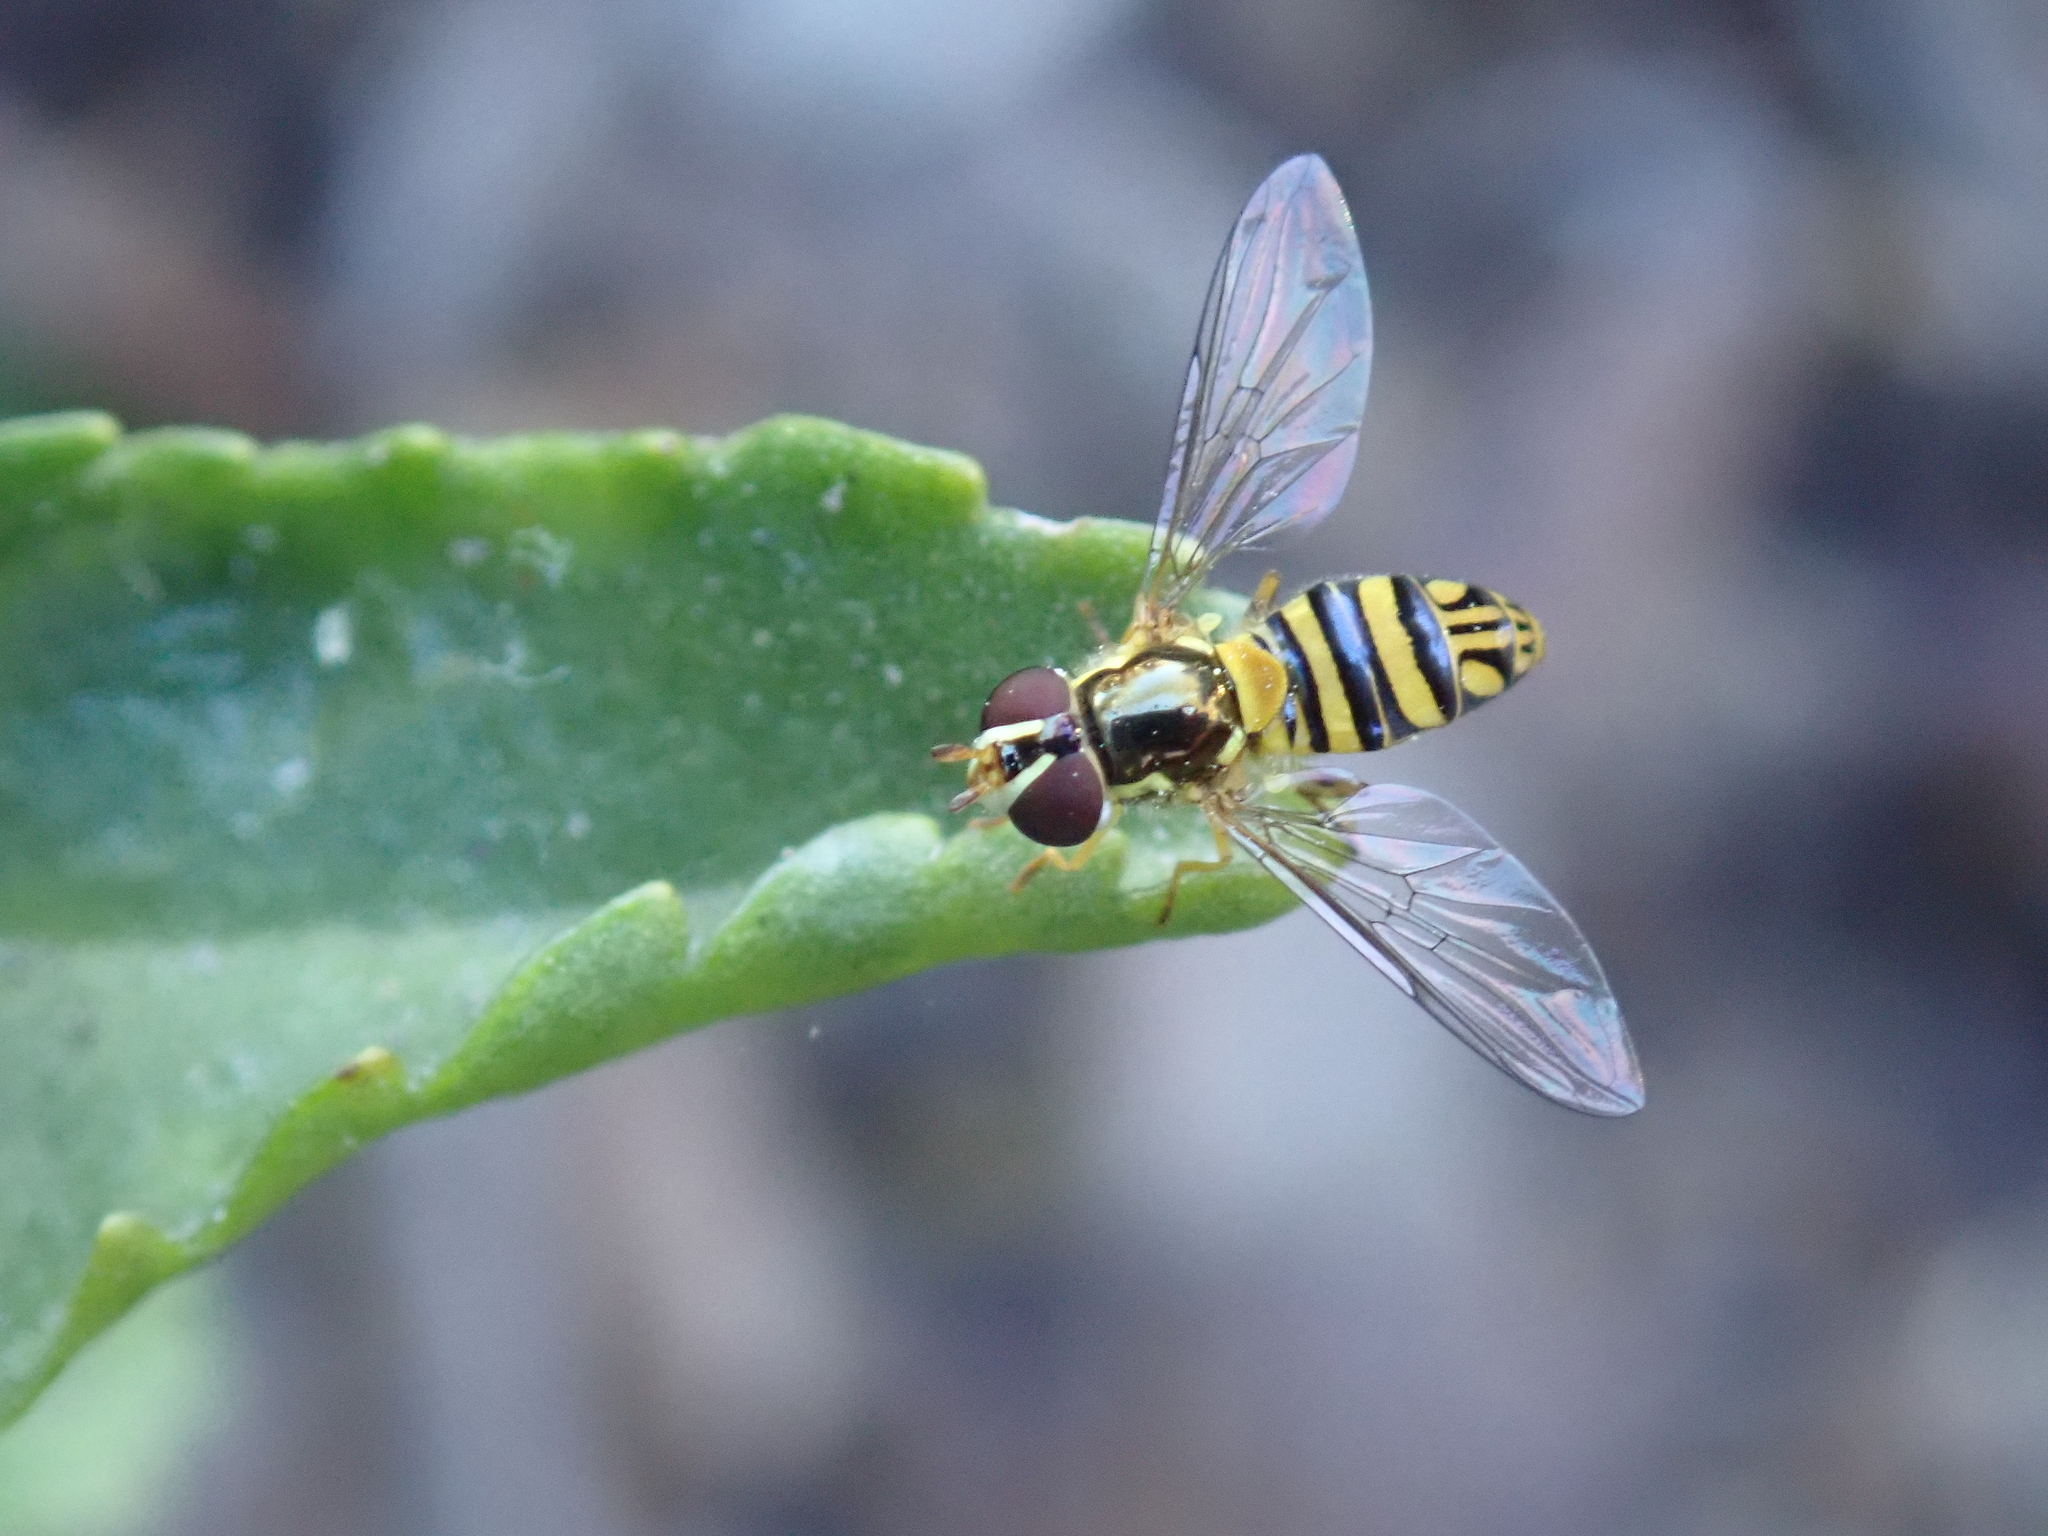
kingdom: Animalia
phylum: Arthropoda
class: Insecta
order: Diptera
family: Syrphidae
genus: Allograpta
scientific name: Allograpta obliqua
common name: Common oblique syrphid
